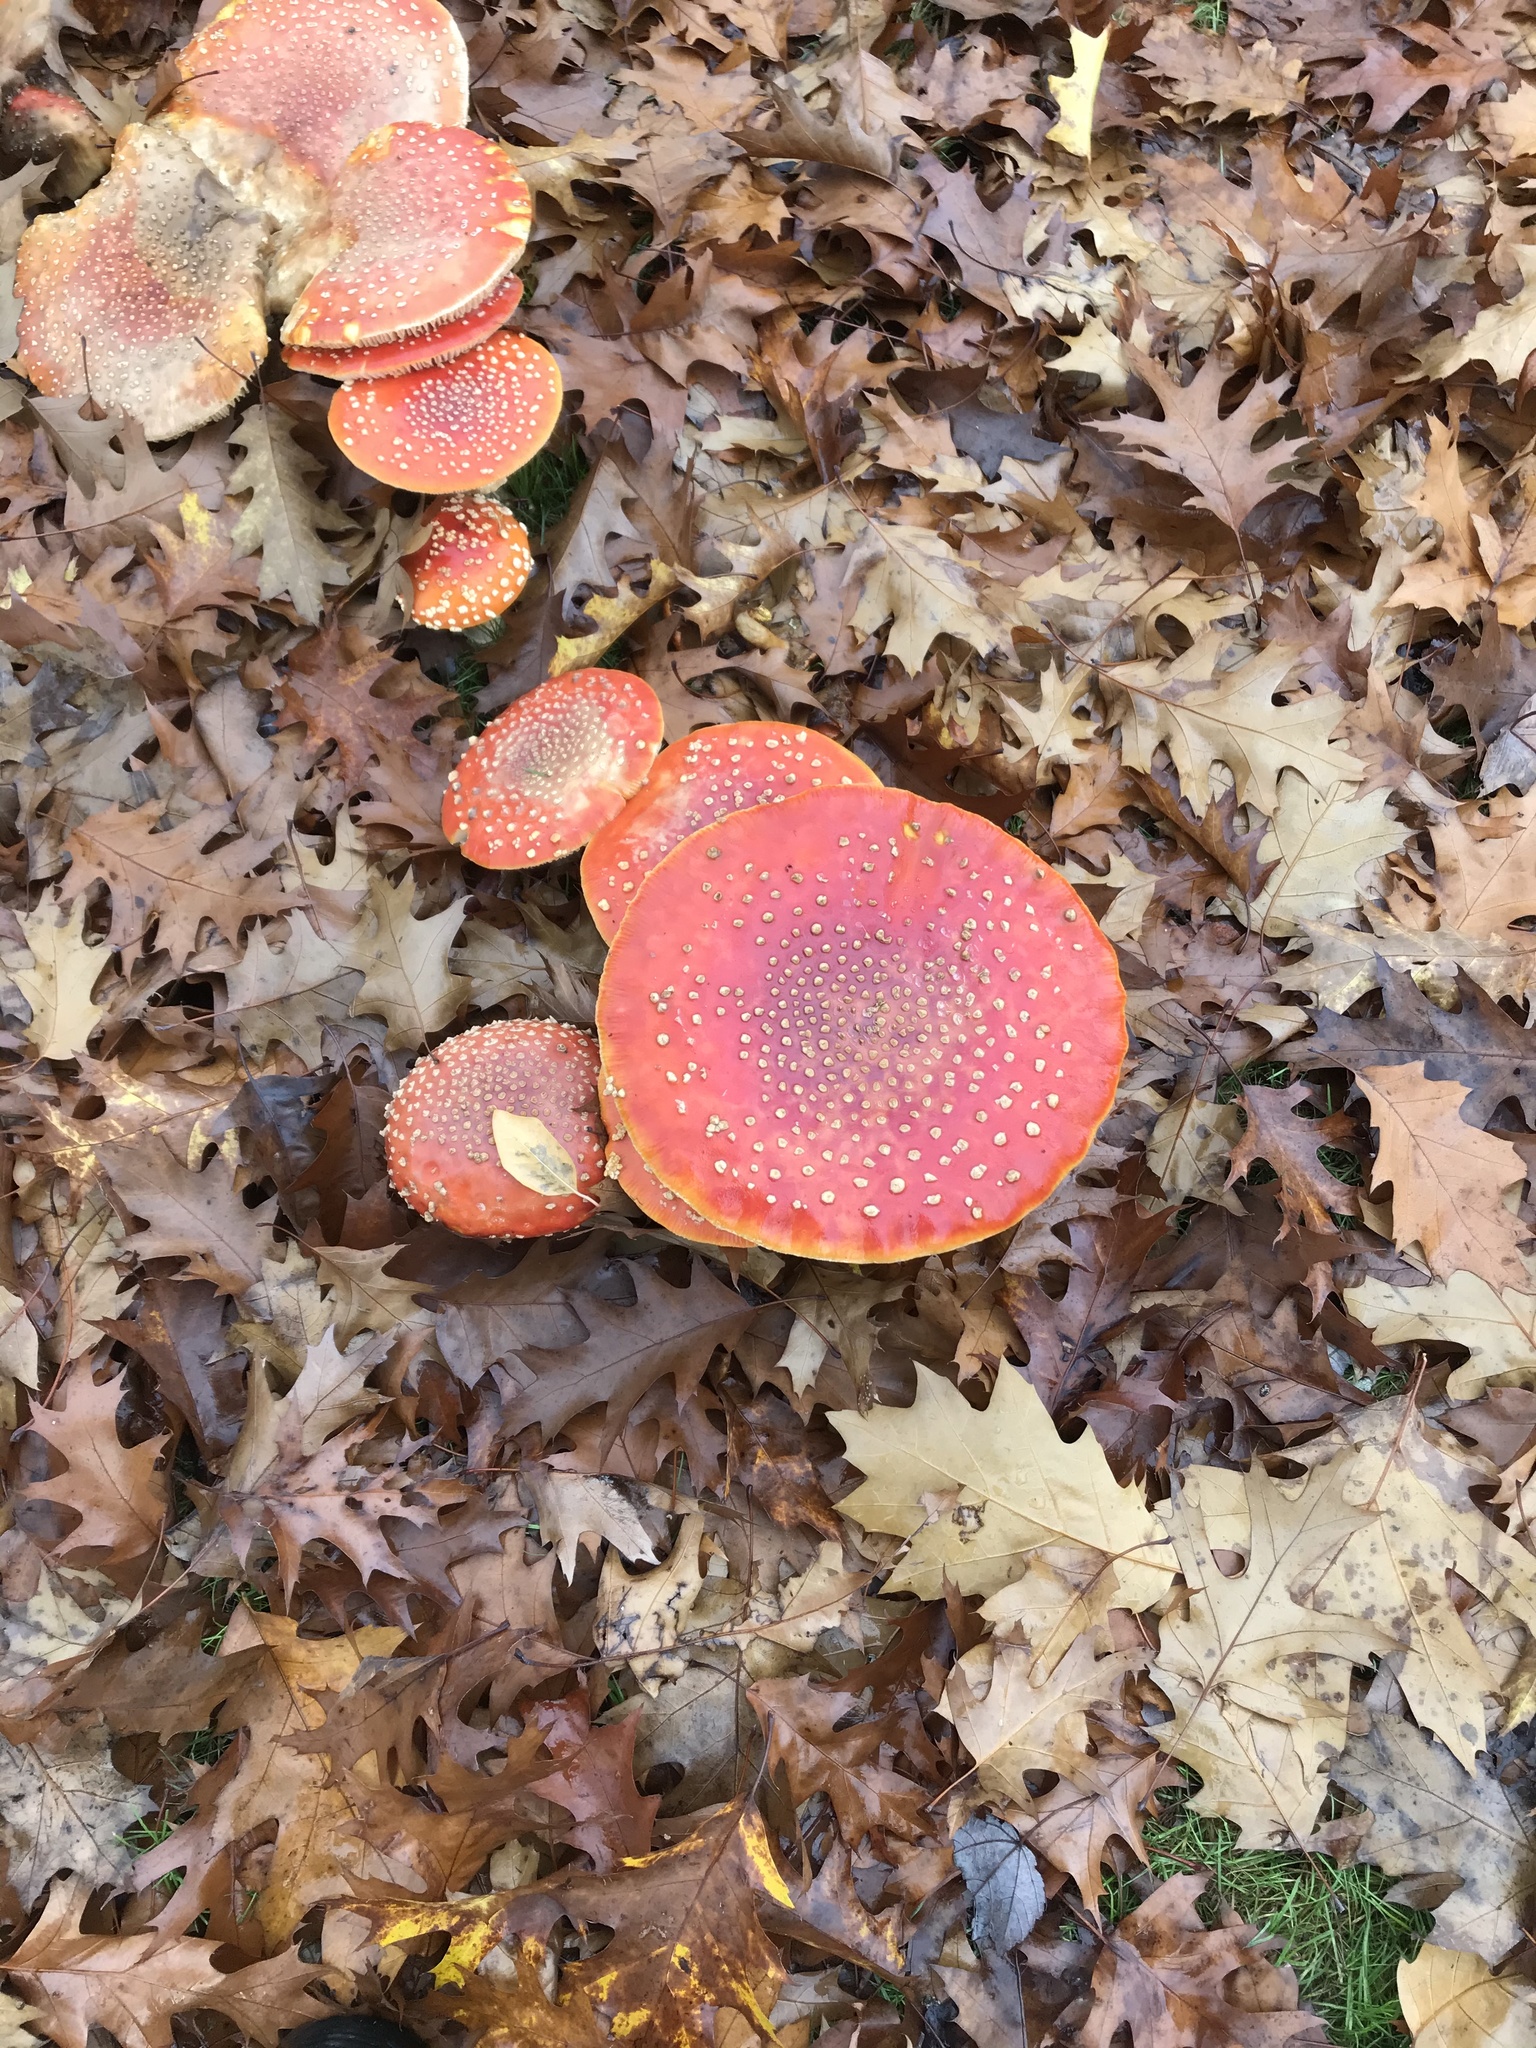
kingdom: Fungi
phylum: Basidiomycota
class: Agaricomycetes
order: Agaricales
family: Amanitaceae
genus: Amanita
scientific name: Amanita muscaria
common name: Fly agaric
